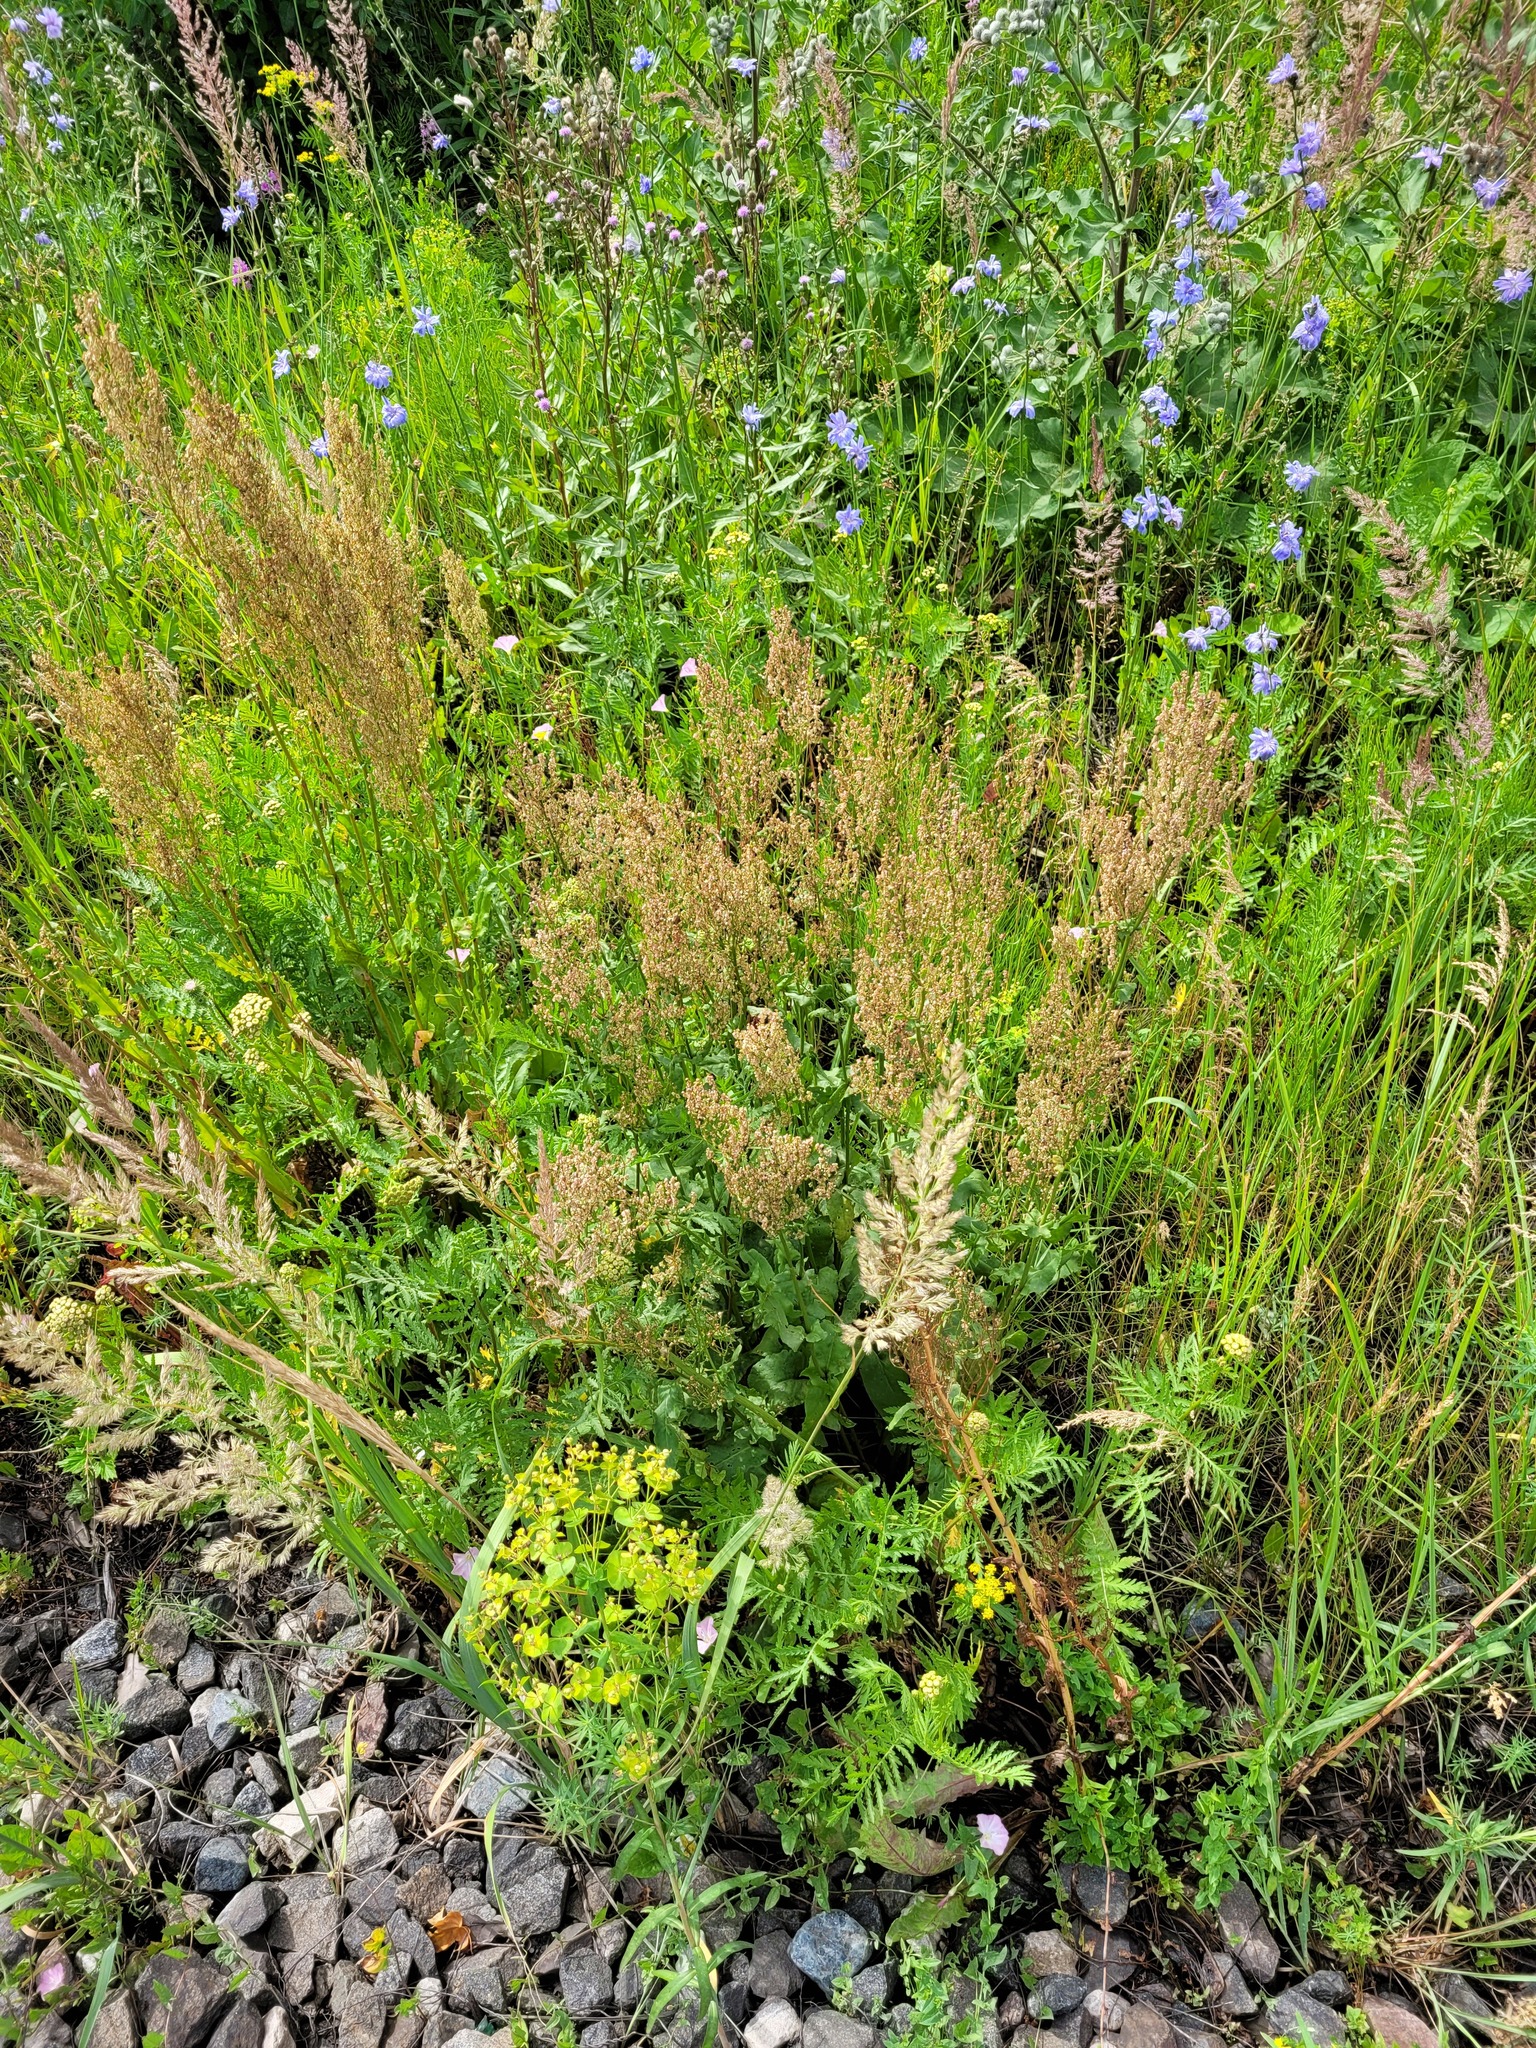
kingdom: Plantae
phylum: Tracheophyta
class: Magnoliopsida
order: Caryophyllales
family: Polygonaceae
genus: Rumex
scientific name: Rumex thyrsiflorus
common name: Garden sorrel
